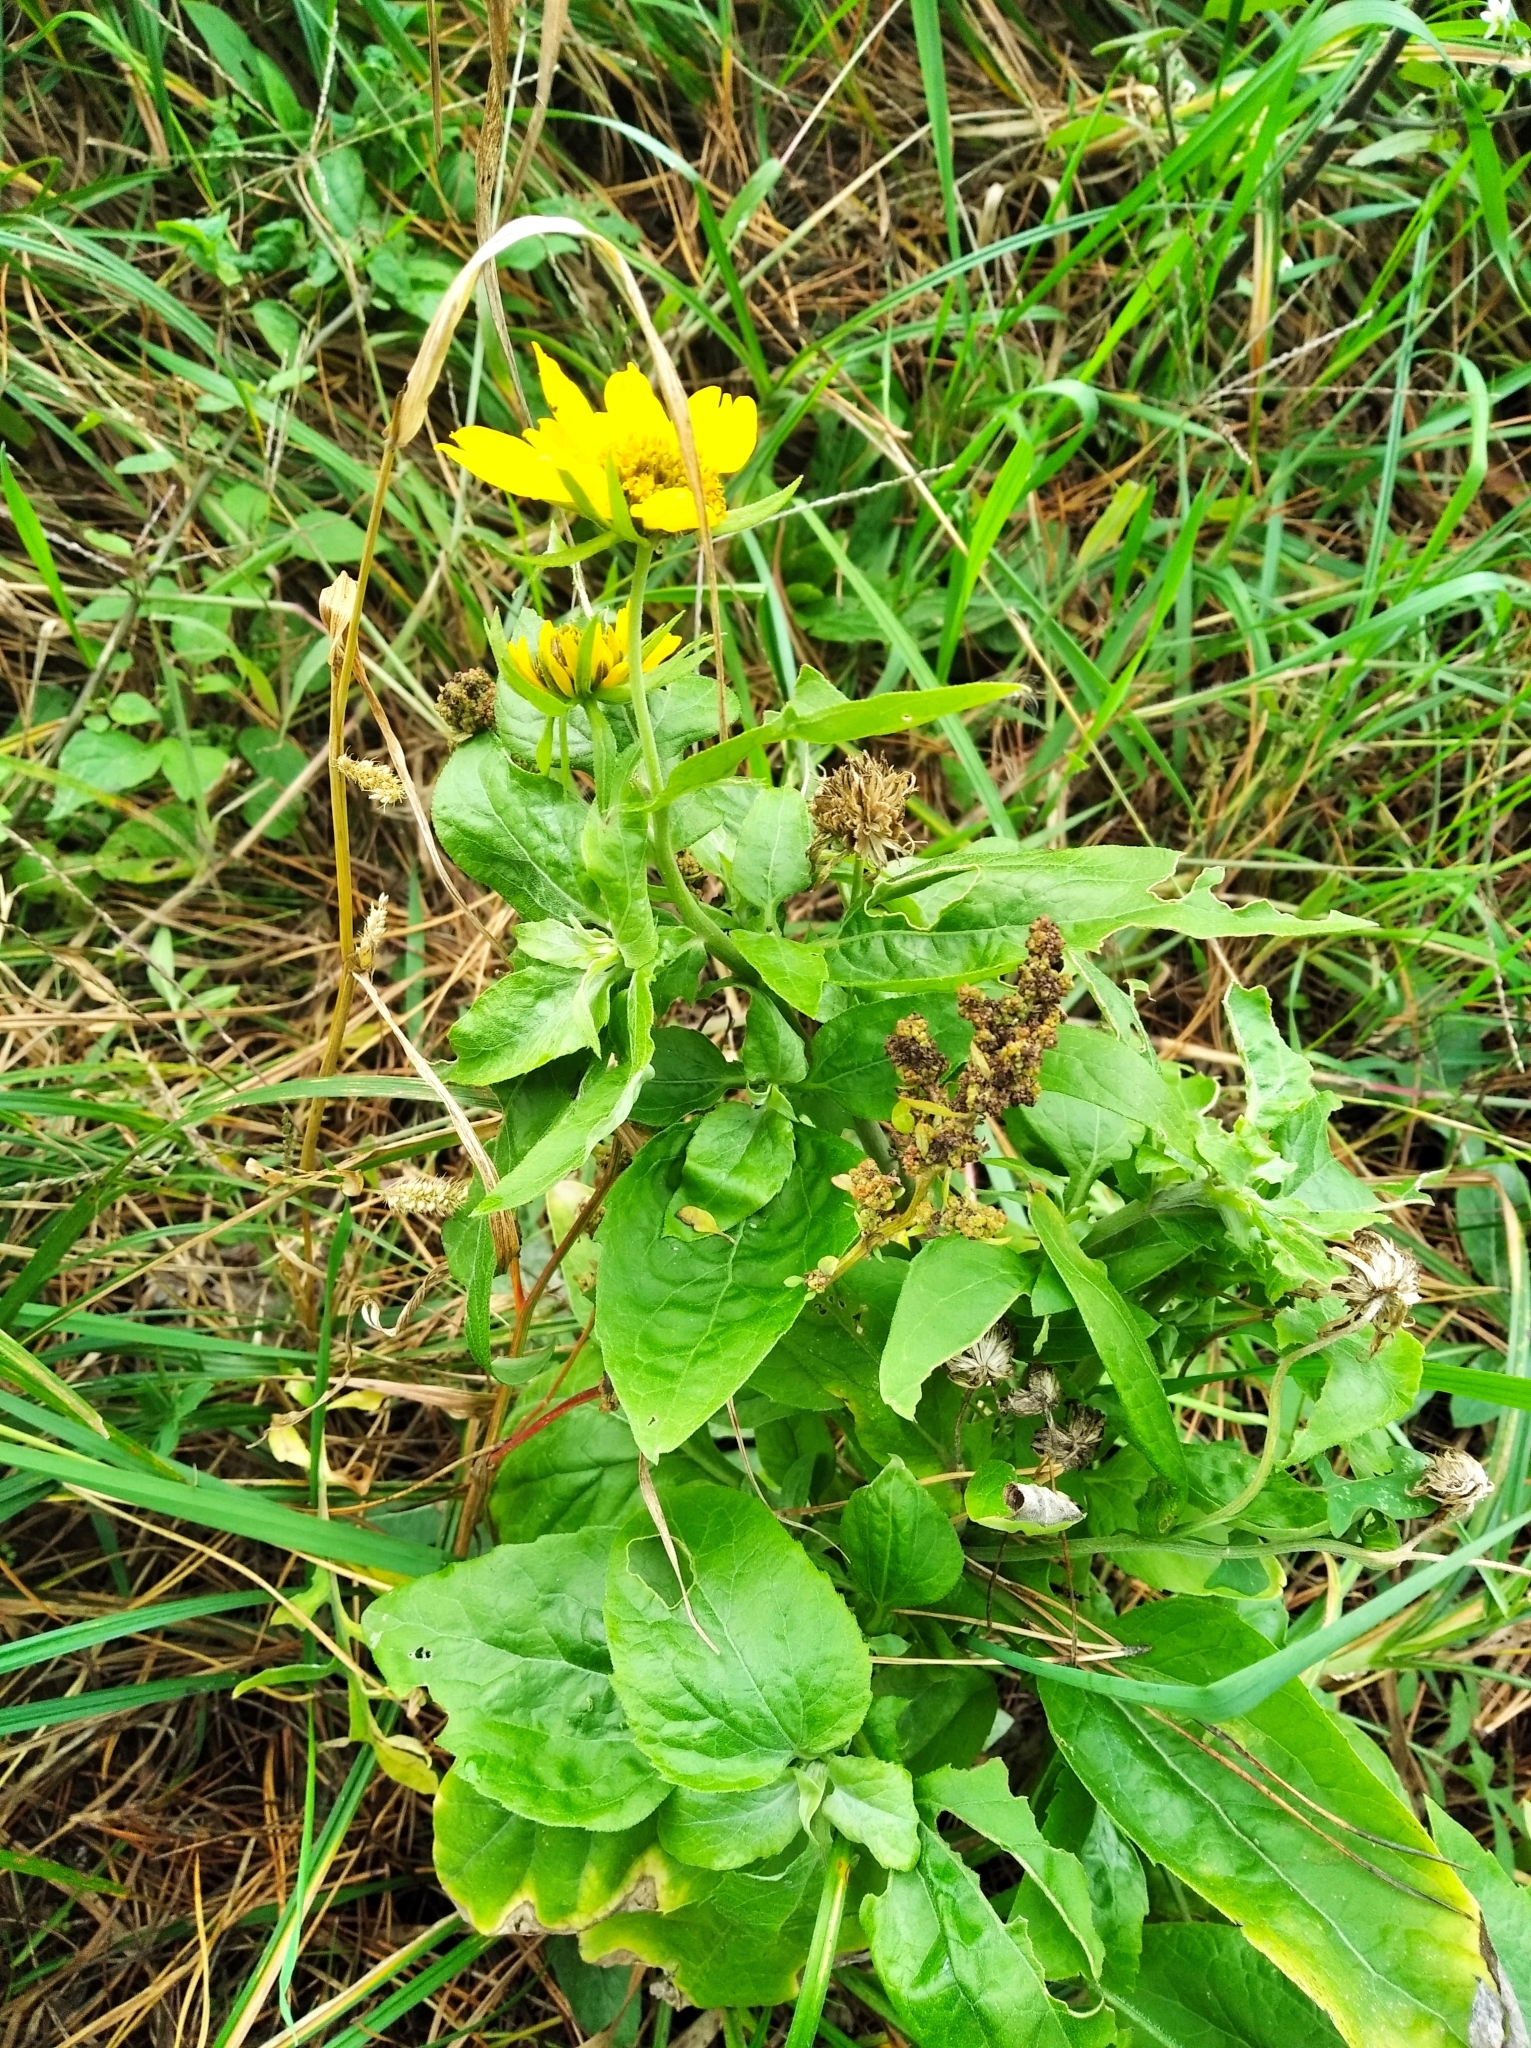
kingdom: Plantae
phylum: Tracheophyta
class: Magnoliopsida
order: Asterales
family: Asteraceae
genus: Verbesina
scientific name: Verbesina encelioides
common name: Golden crownbeard
